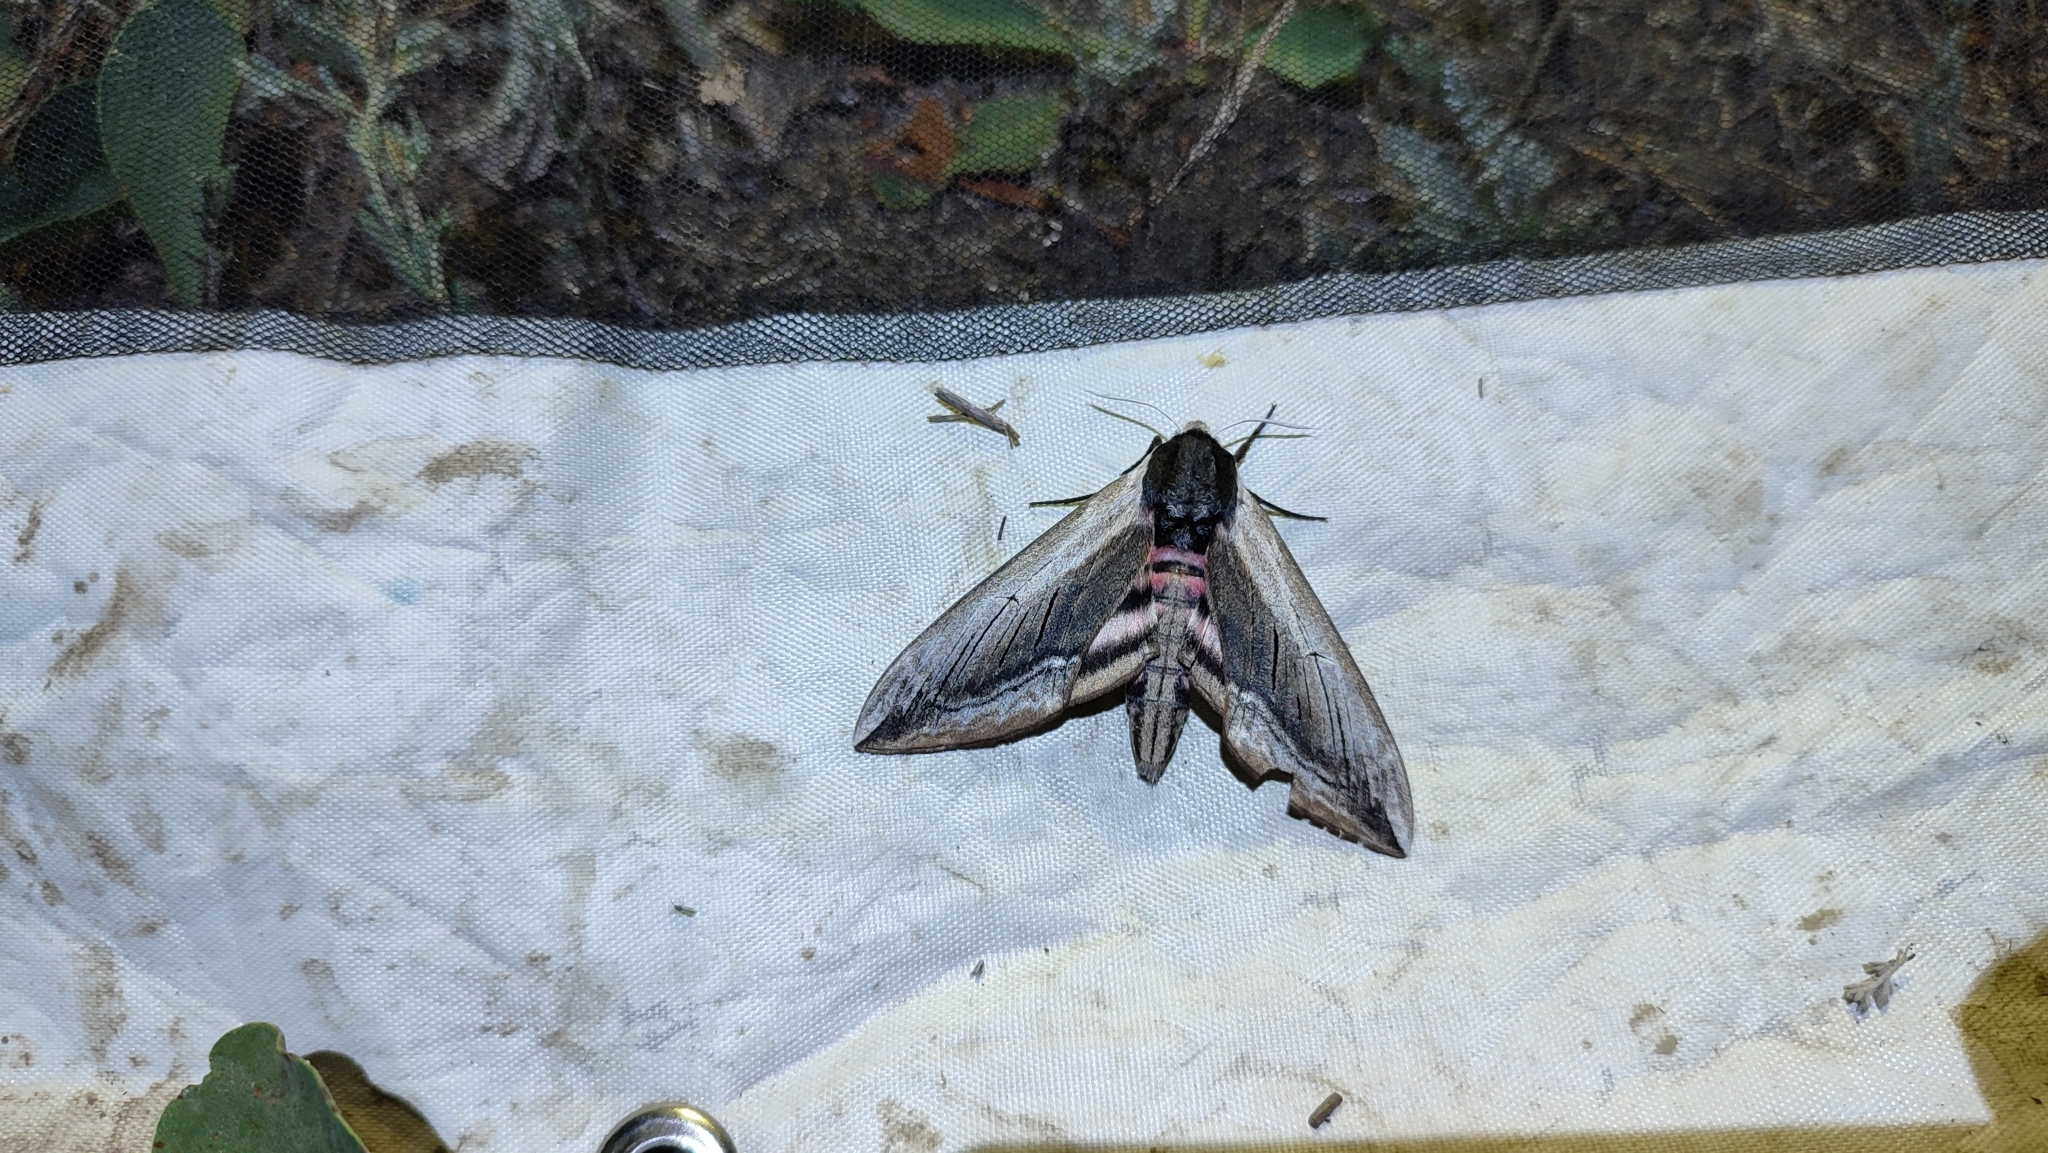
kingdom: Animalia
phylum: Arthropoda
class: Insecta
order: Lepidoptera
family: Sphingidae
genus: Sphinx
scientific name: Sphinx ligustri
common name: Privet hawk-moth
